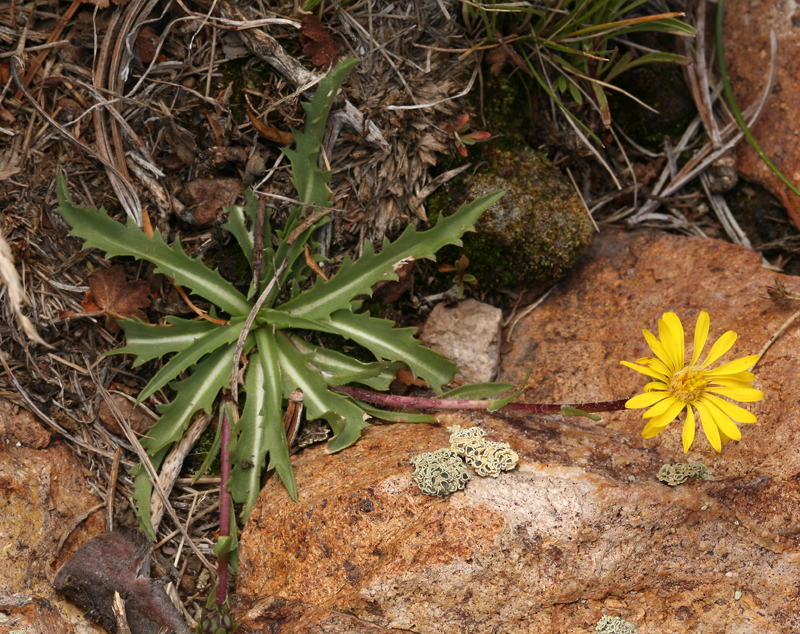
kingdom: Plantae
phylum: Tracheophyta
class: Magnoliopsida
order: Asterales
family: Asteraceae
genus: Pyrrocoma
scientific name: Pyrrocoma apargioides
